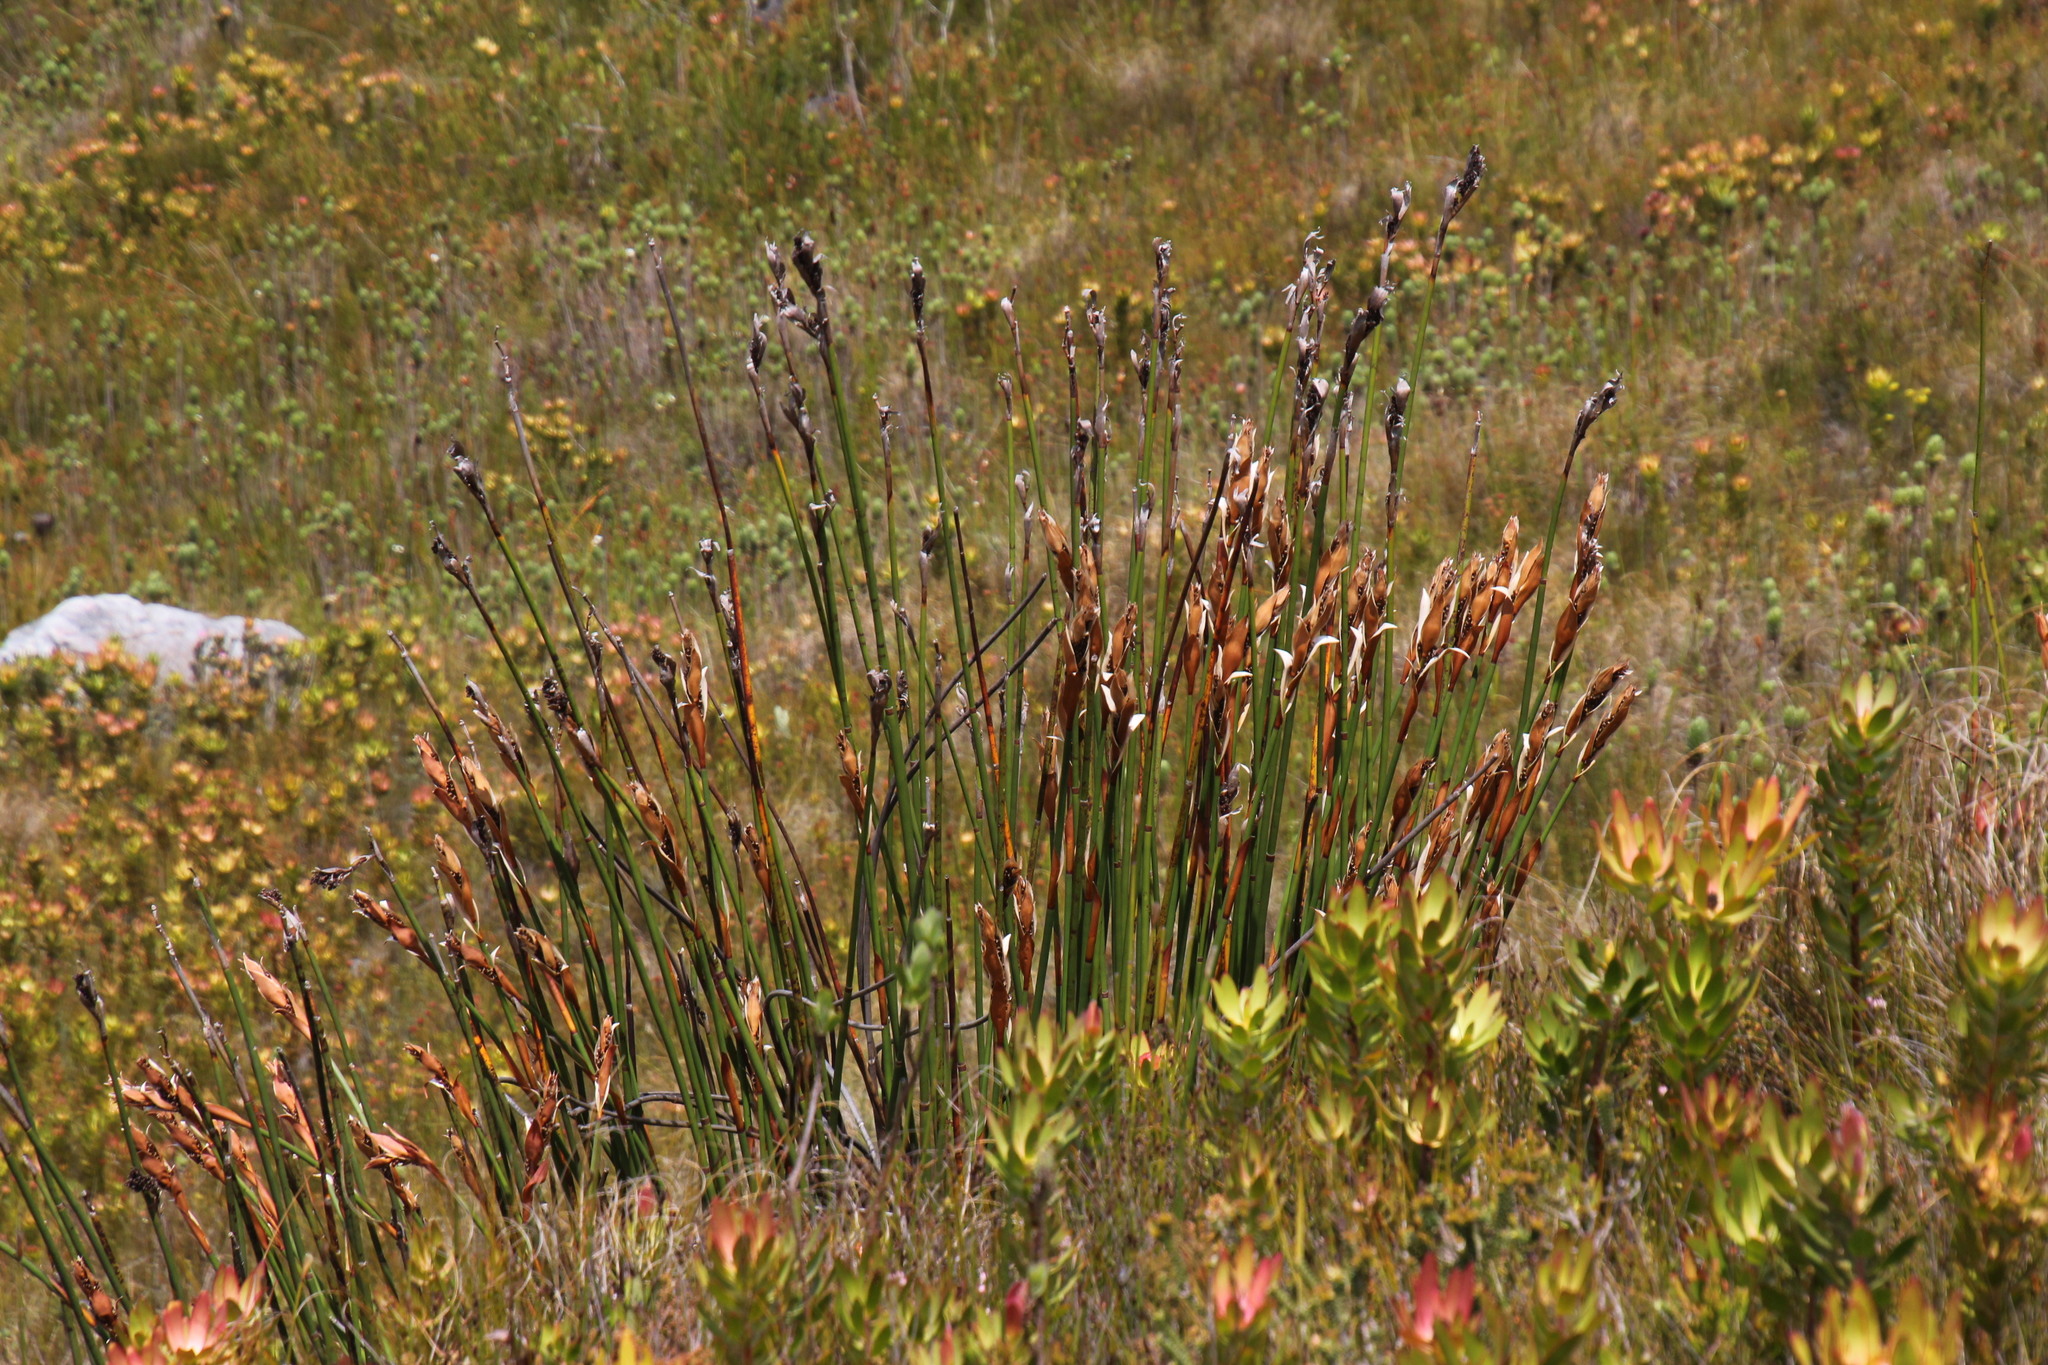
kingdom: Plantae
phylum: Tracheophyta
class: Liliopsida
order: Poales
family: Restionaceae
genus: Elegia
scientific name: Elegia mucronata
